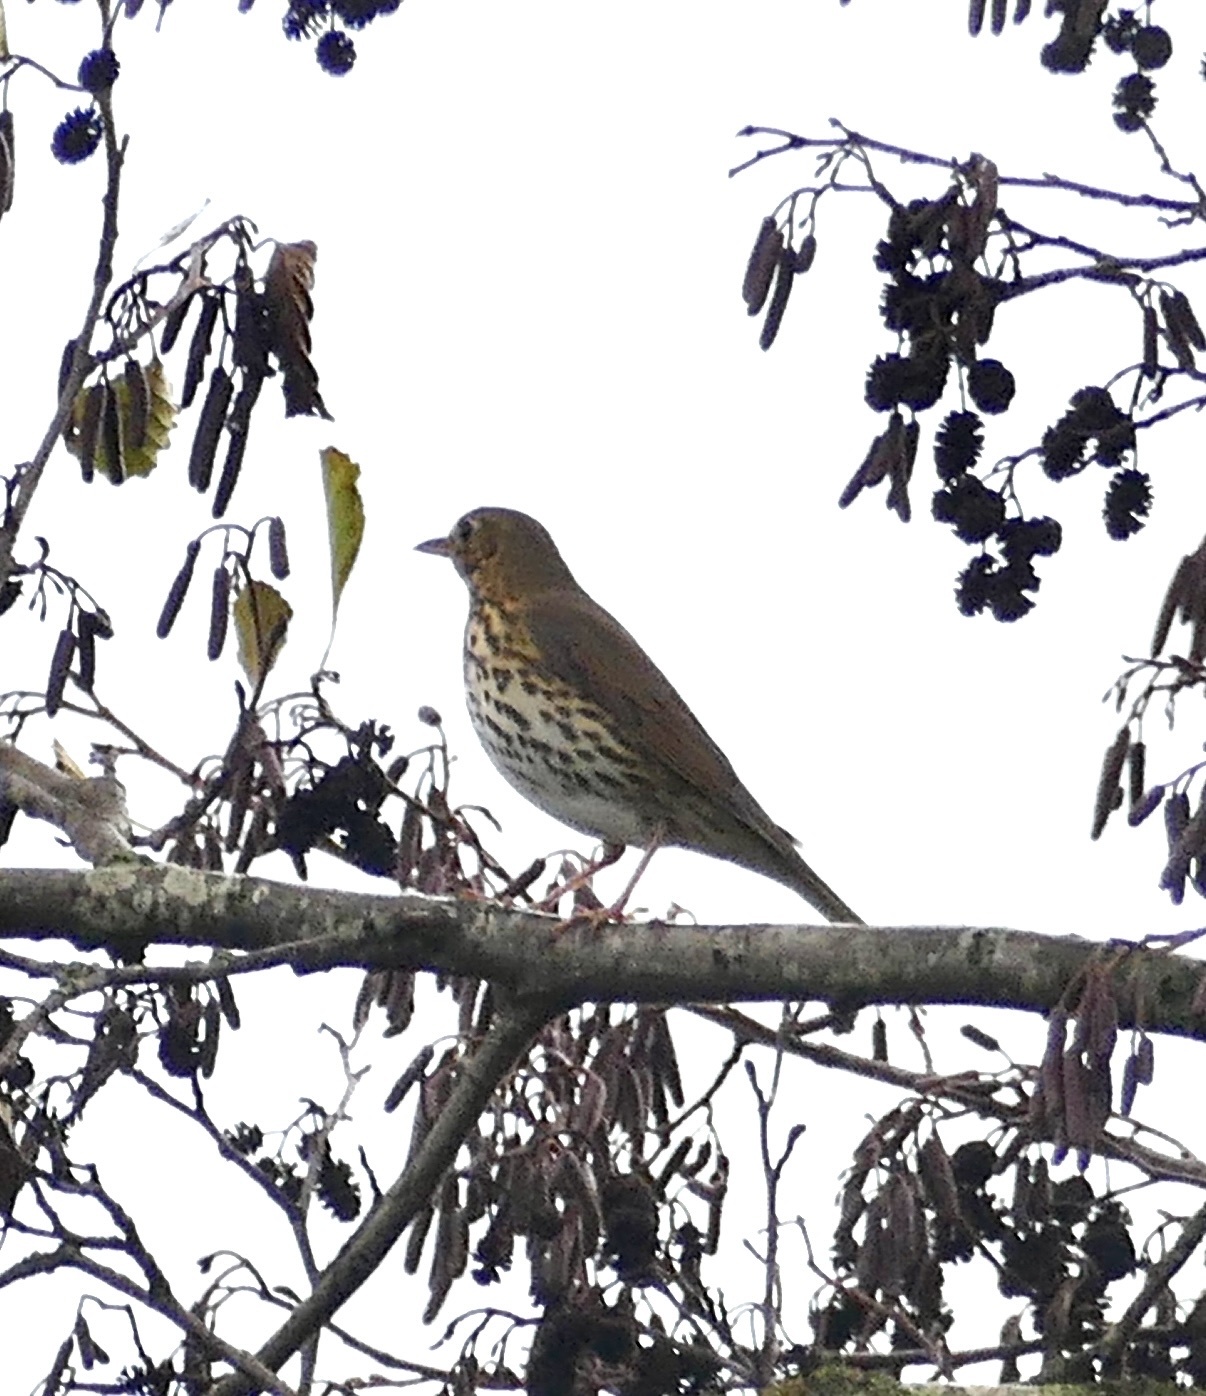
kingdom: Animalia
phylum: Chordata
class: Aves
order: Passeriformes
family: Turdidae
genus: Turdus
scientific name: Turdus philomelos
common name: Song thrush
